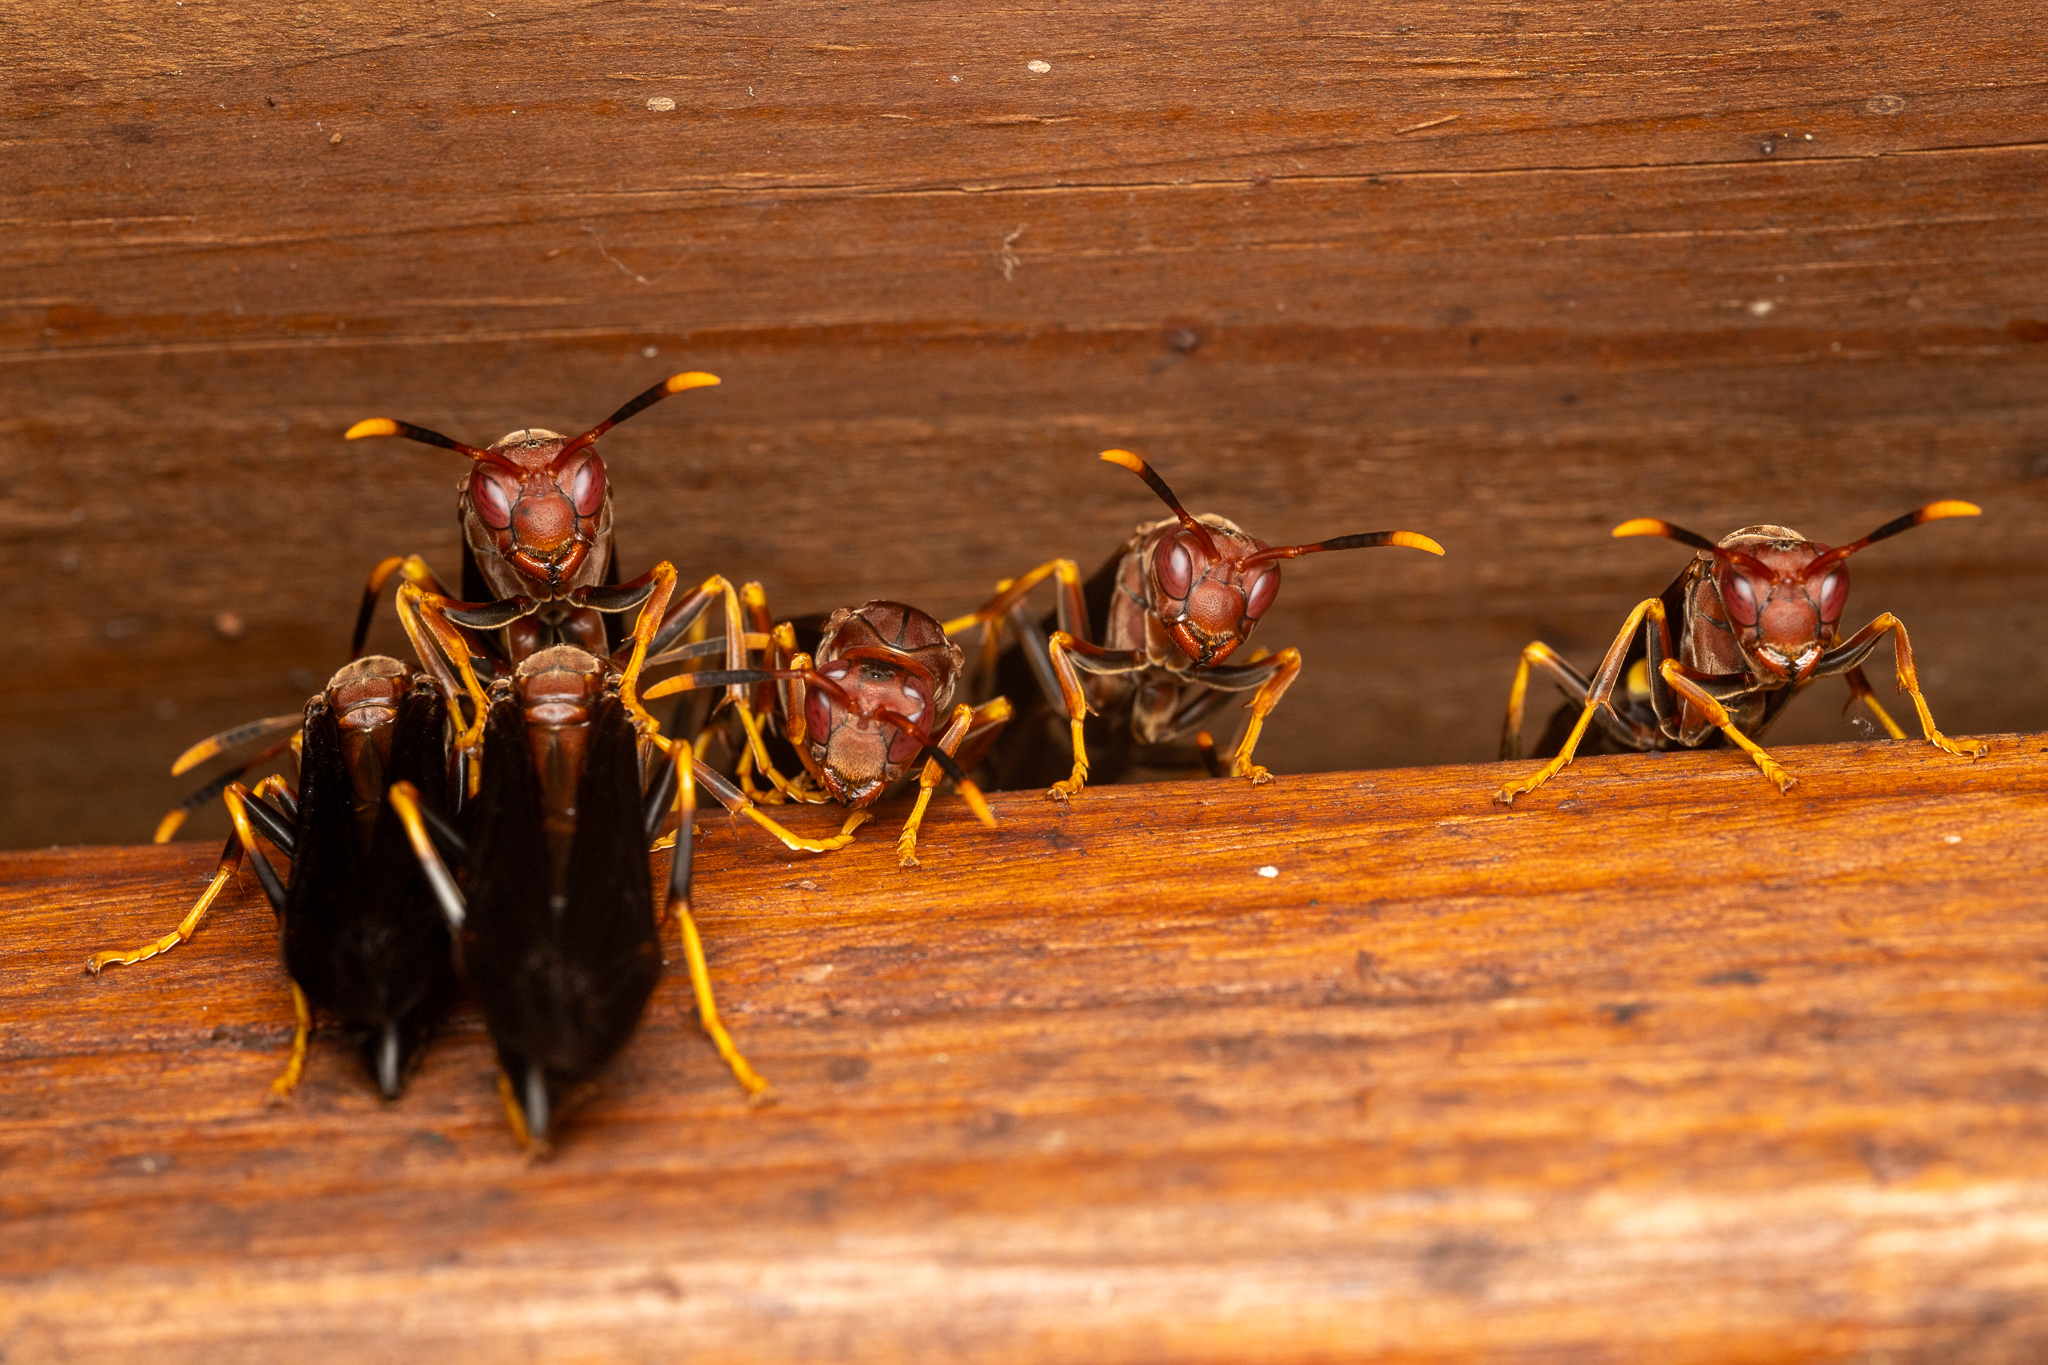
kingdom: Animalia
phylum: Arthropoda
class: Insecta
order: Hymenoptera
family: Eumenidae
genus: Polistes
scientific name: Polistes annularis
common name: Ringed paper wasp
